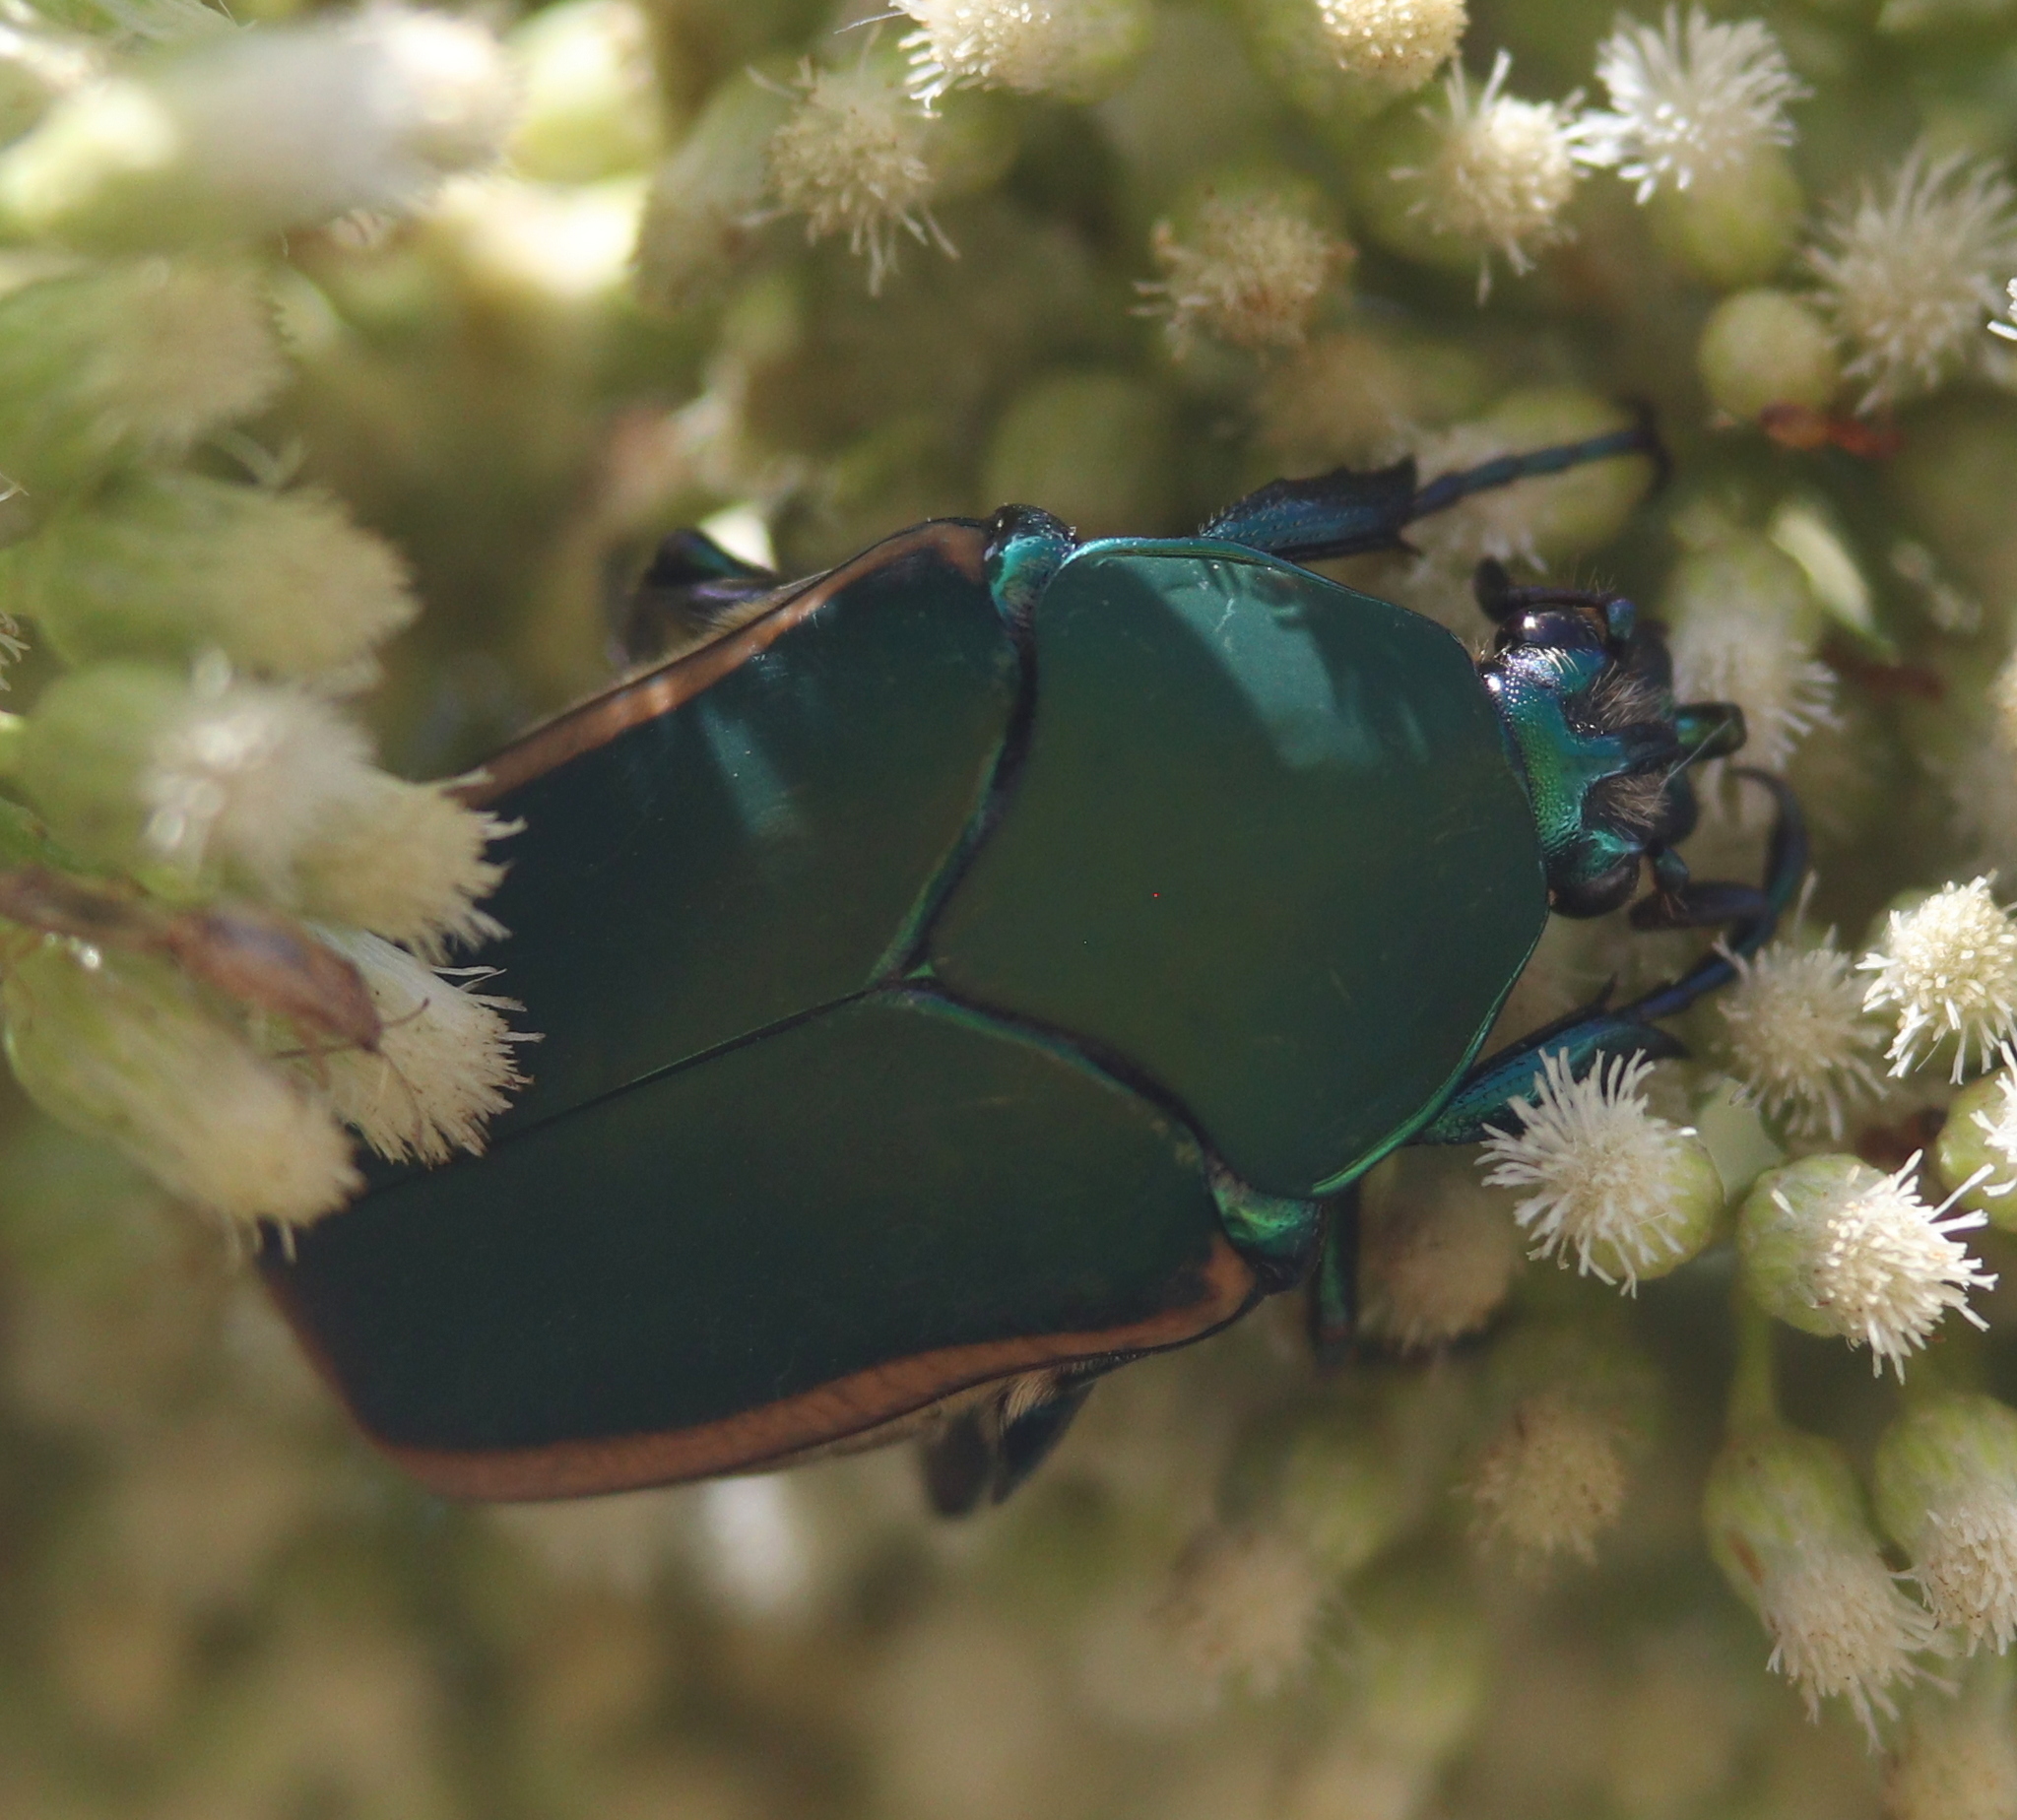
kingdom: Animalia
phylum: Arthropoda
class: Insecta
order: Coleoptera
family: Scarabaeidae
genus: Cotinis
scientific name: Cotinis mutabilis
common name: Figeater beetle
